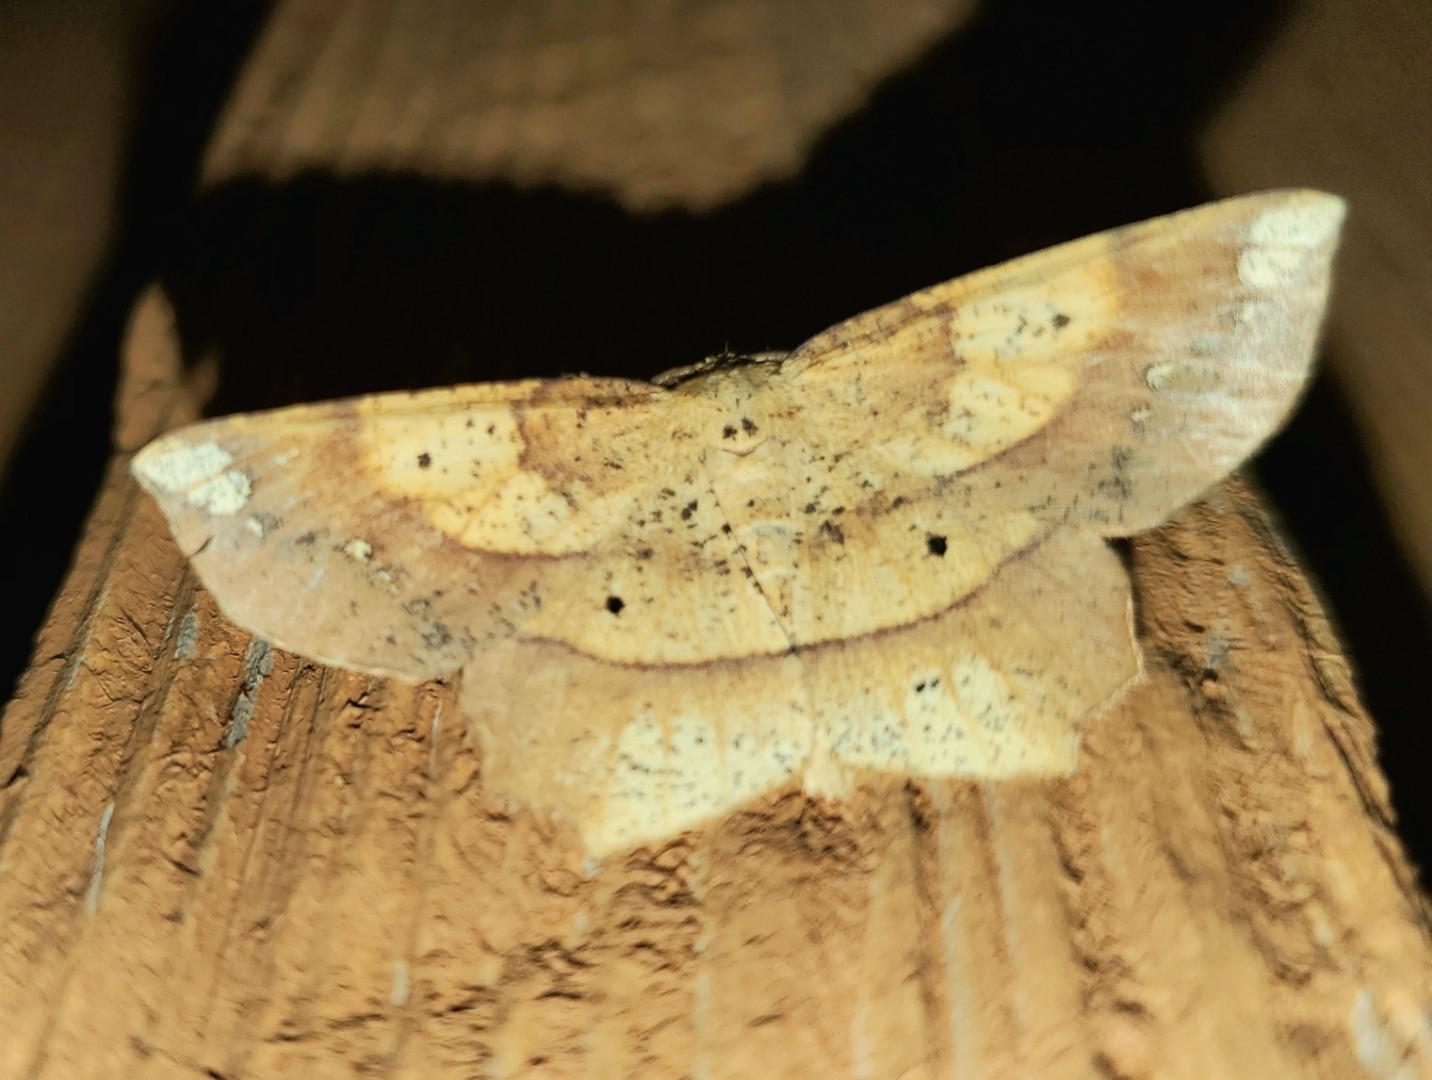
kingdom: Animalia
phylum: Arthropoda
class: Insecta
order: Lepidoptera
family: Geometridae
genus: Euchlaena
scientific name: Euchlaena amoenaria
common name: Deep yellow euchlaena
